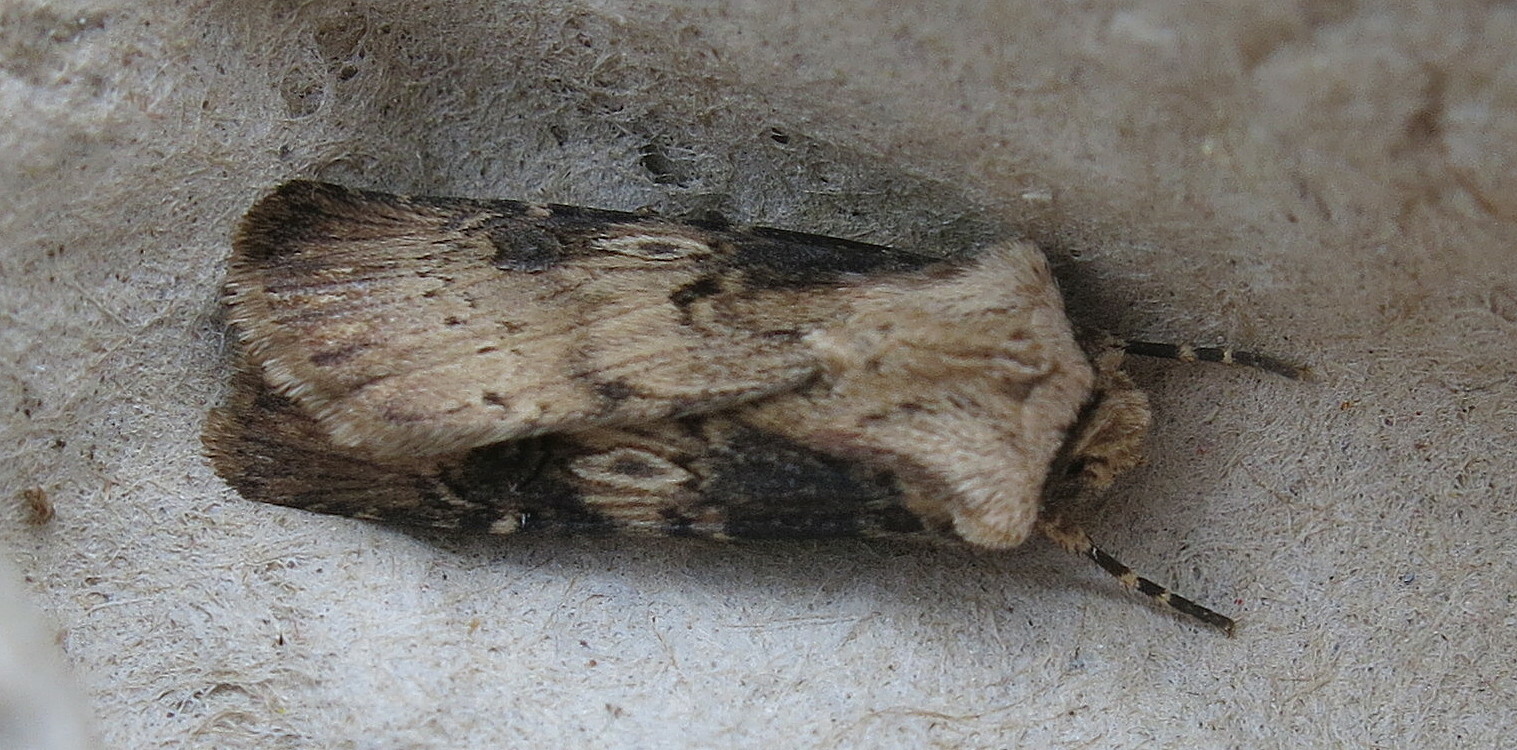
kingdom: Animalia
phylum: Arthropoda
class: Insecta
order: Lepidoptera
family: Noctuidae
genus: Agrotis
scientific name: Agrotis puta
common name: Shuttle-shaped dart
